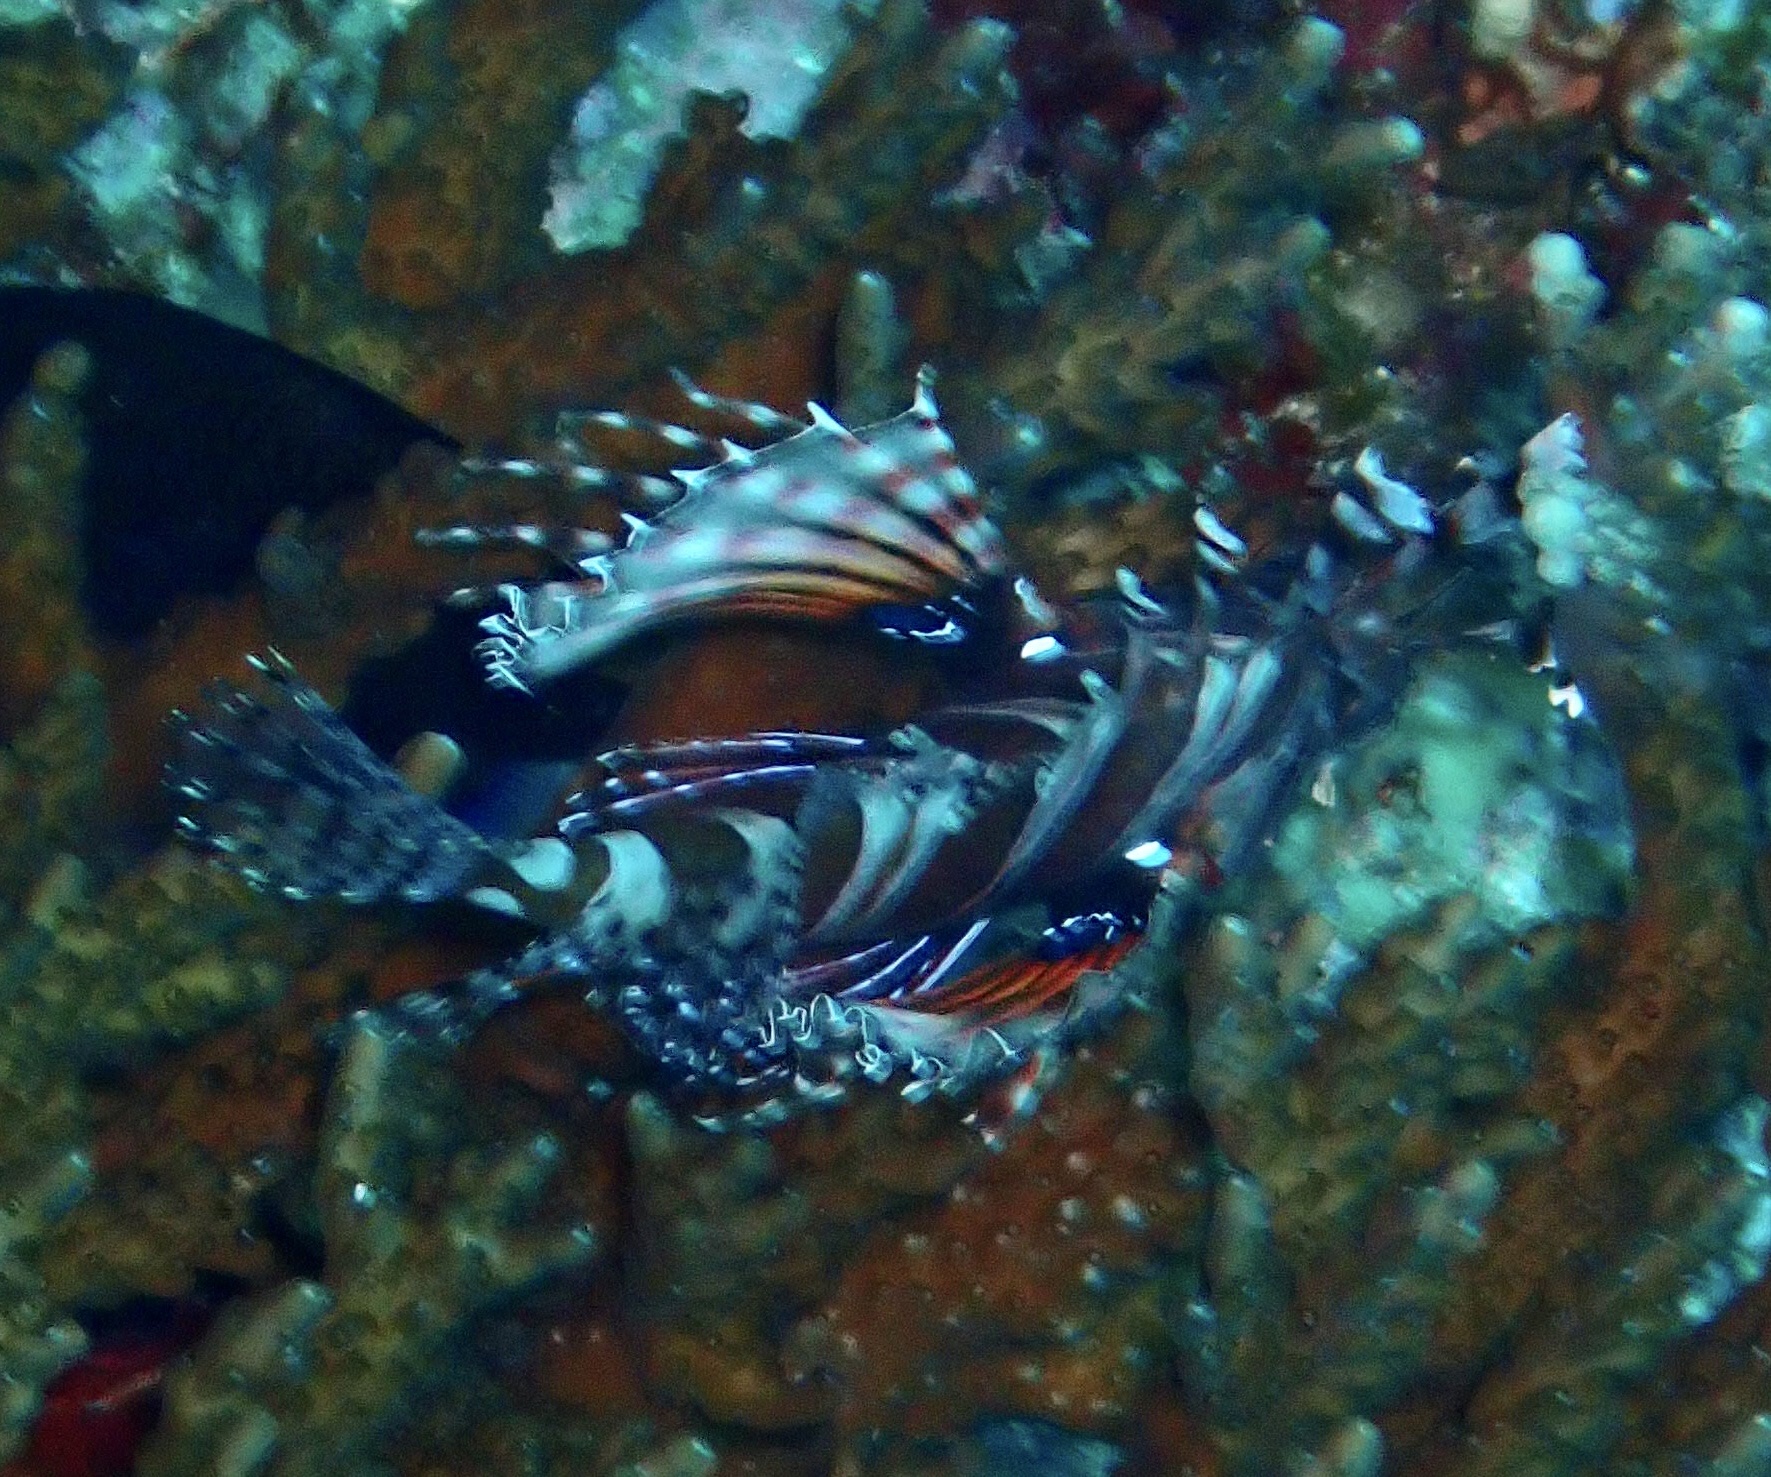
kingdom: Animalia
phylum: Chordata
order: Scorpaeniformes
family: Scorpaenidae
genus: Dendrochirus
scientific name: Dendrochirus zebra
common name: Zebra lionfish
